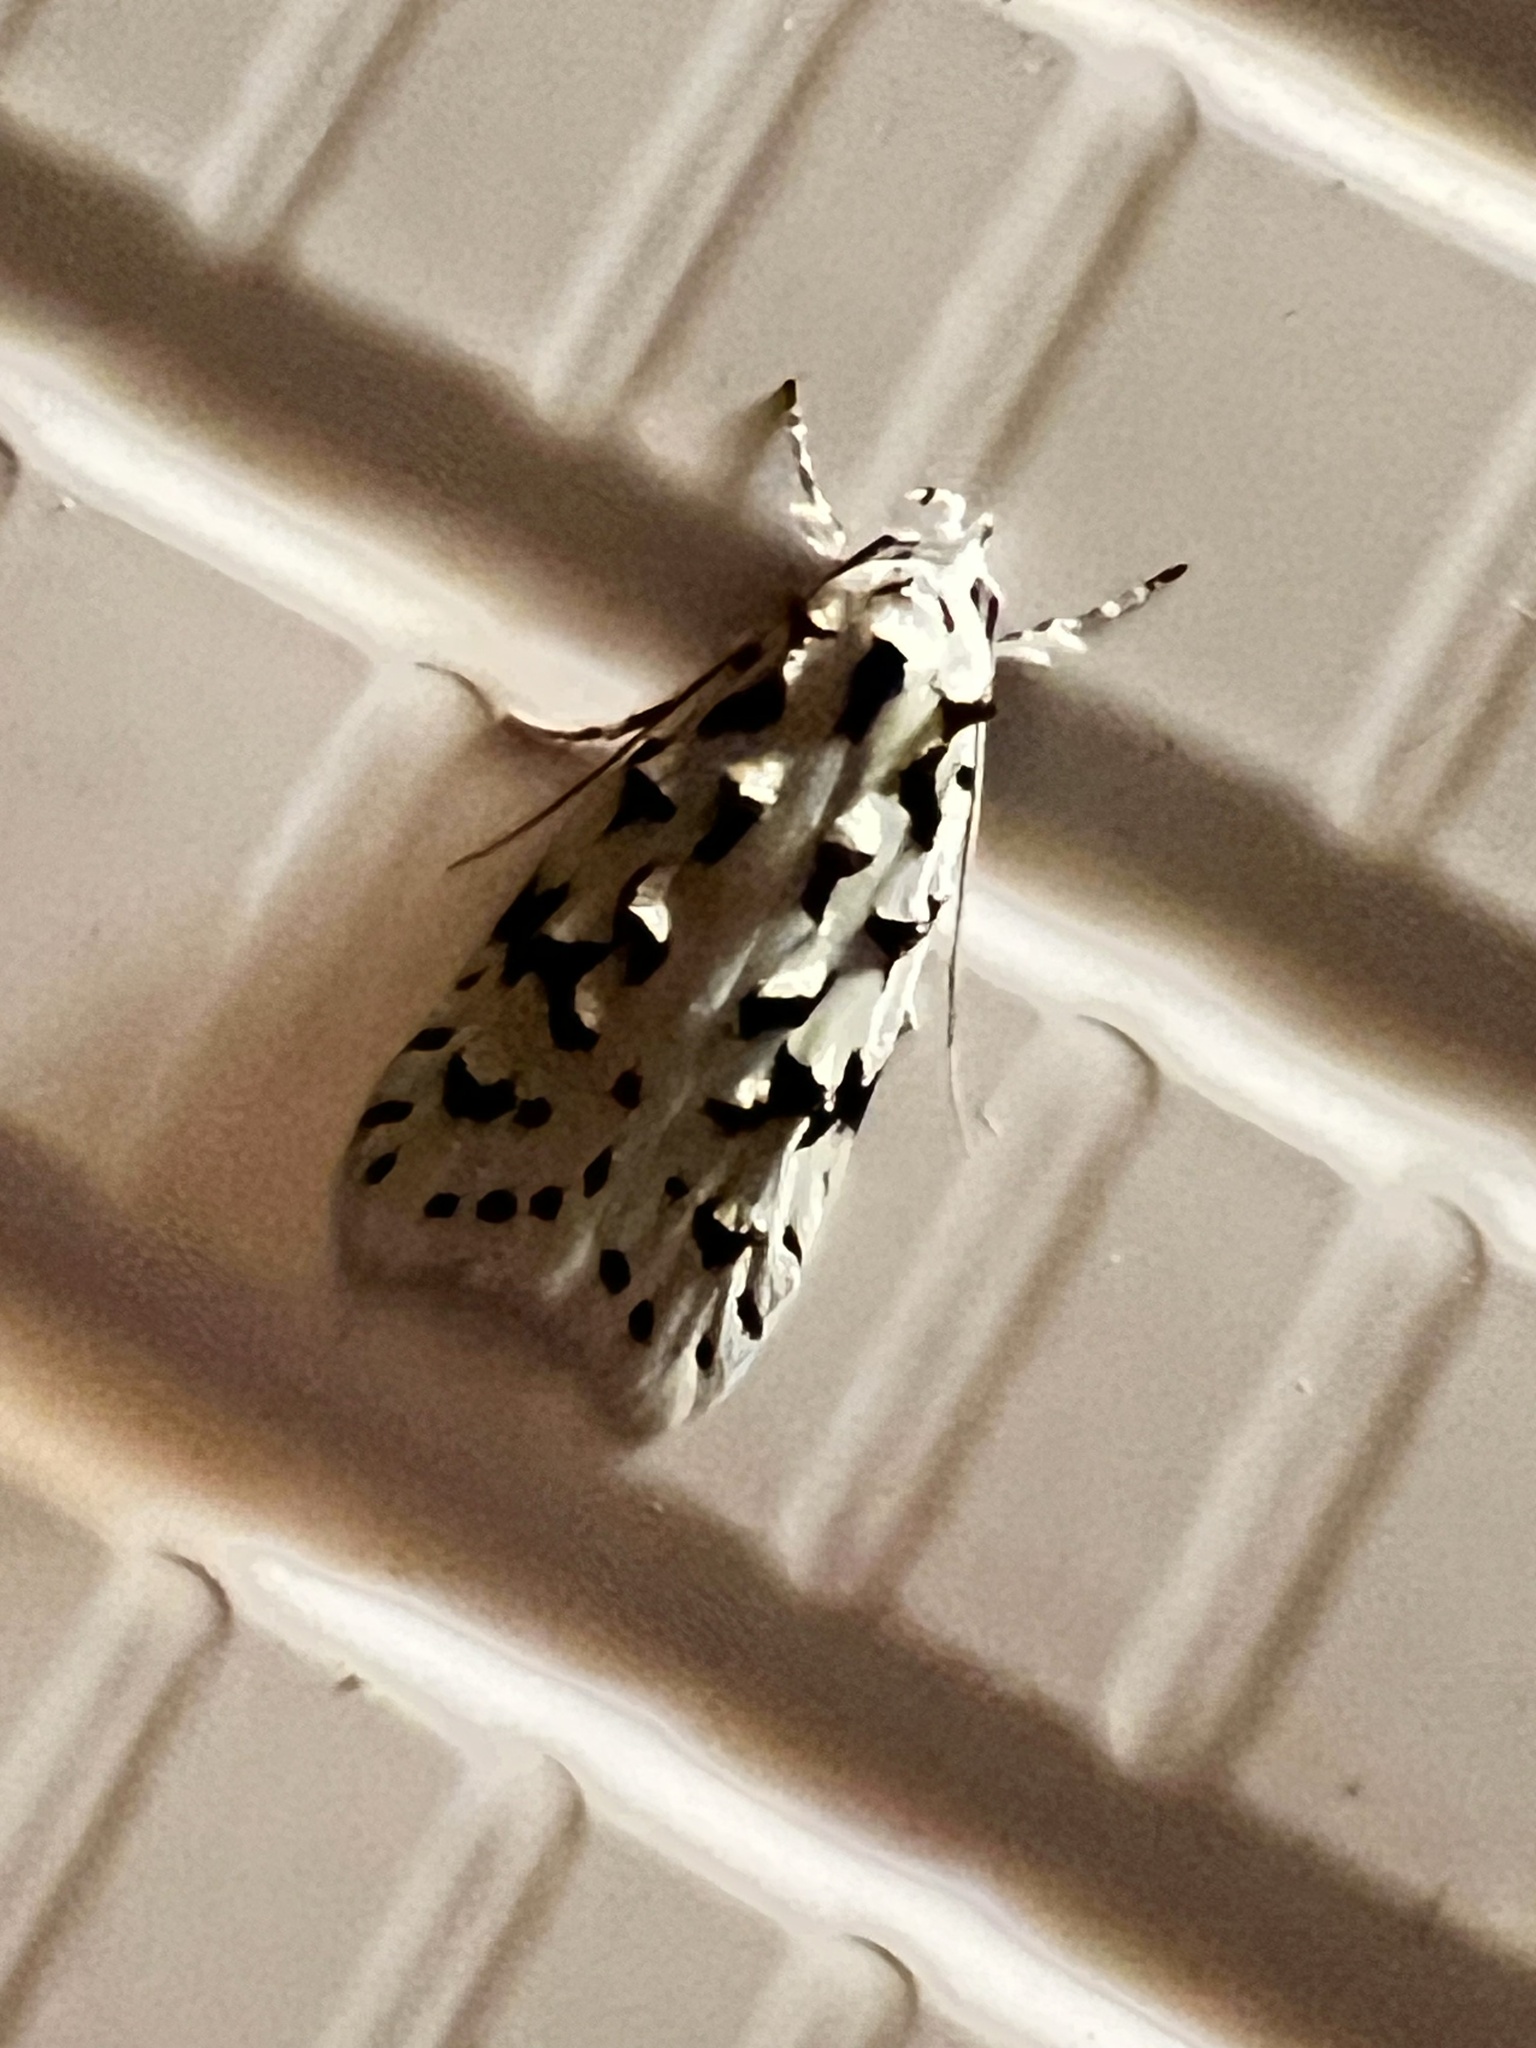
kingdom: Animalia
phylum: Arthropoda
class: Insecta
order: Lepidoptera
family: Oecophoridae
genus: Izatha
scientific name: Izatha peroneanella
